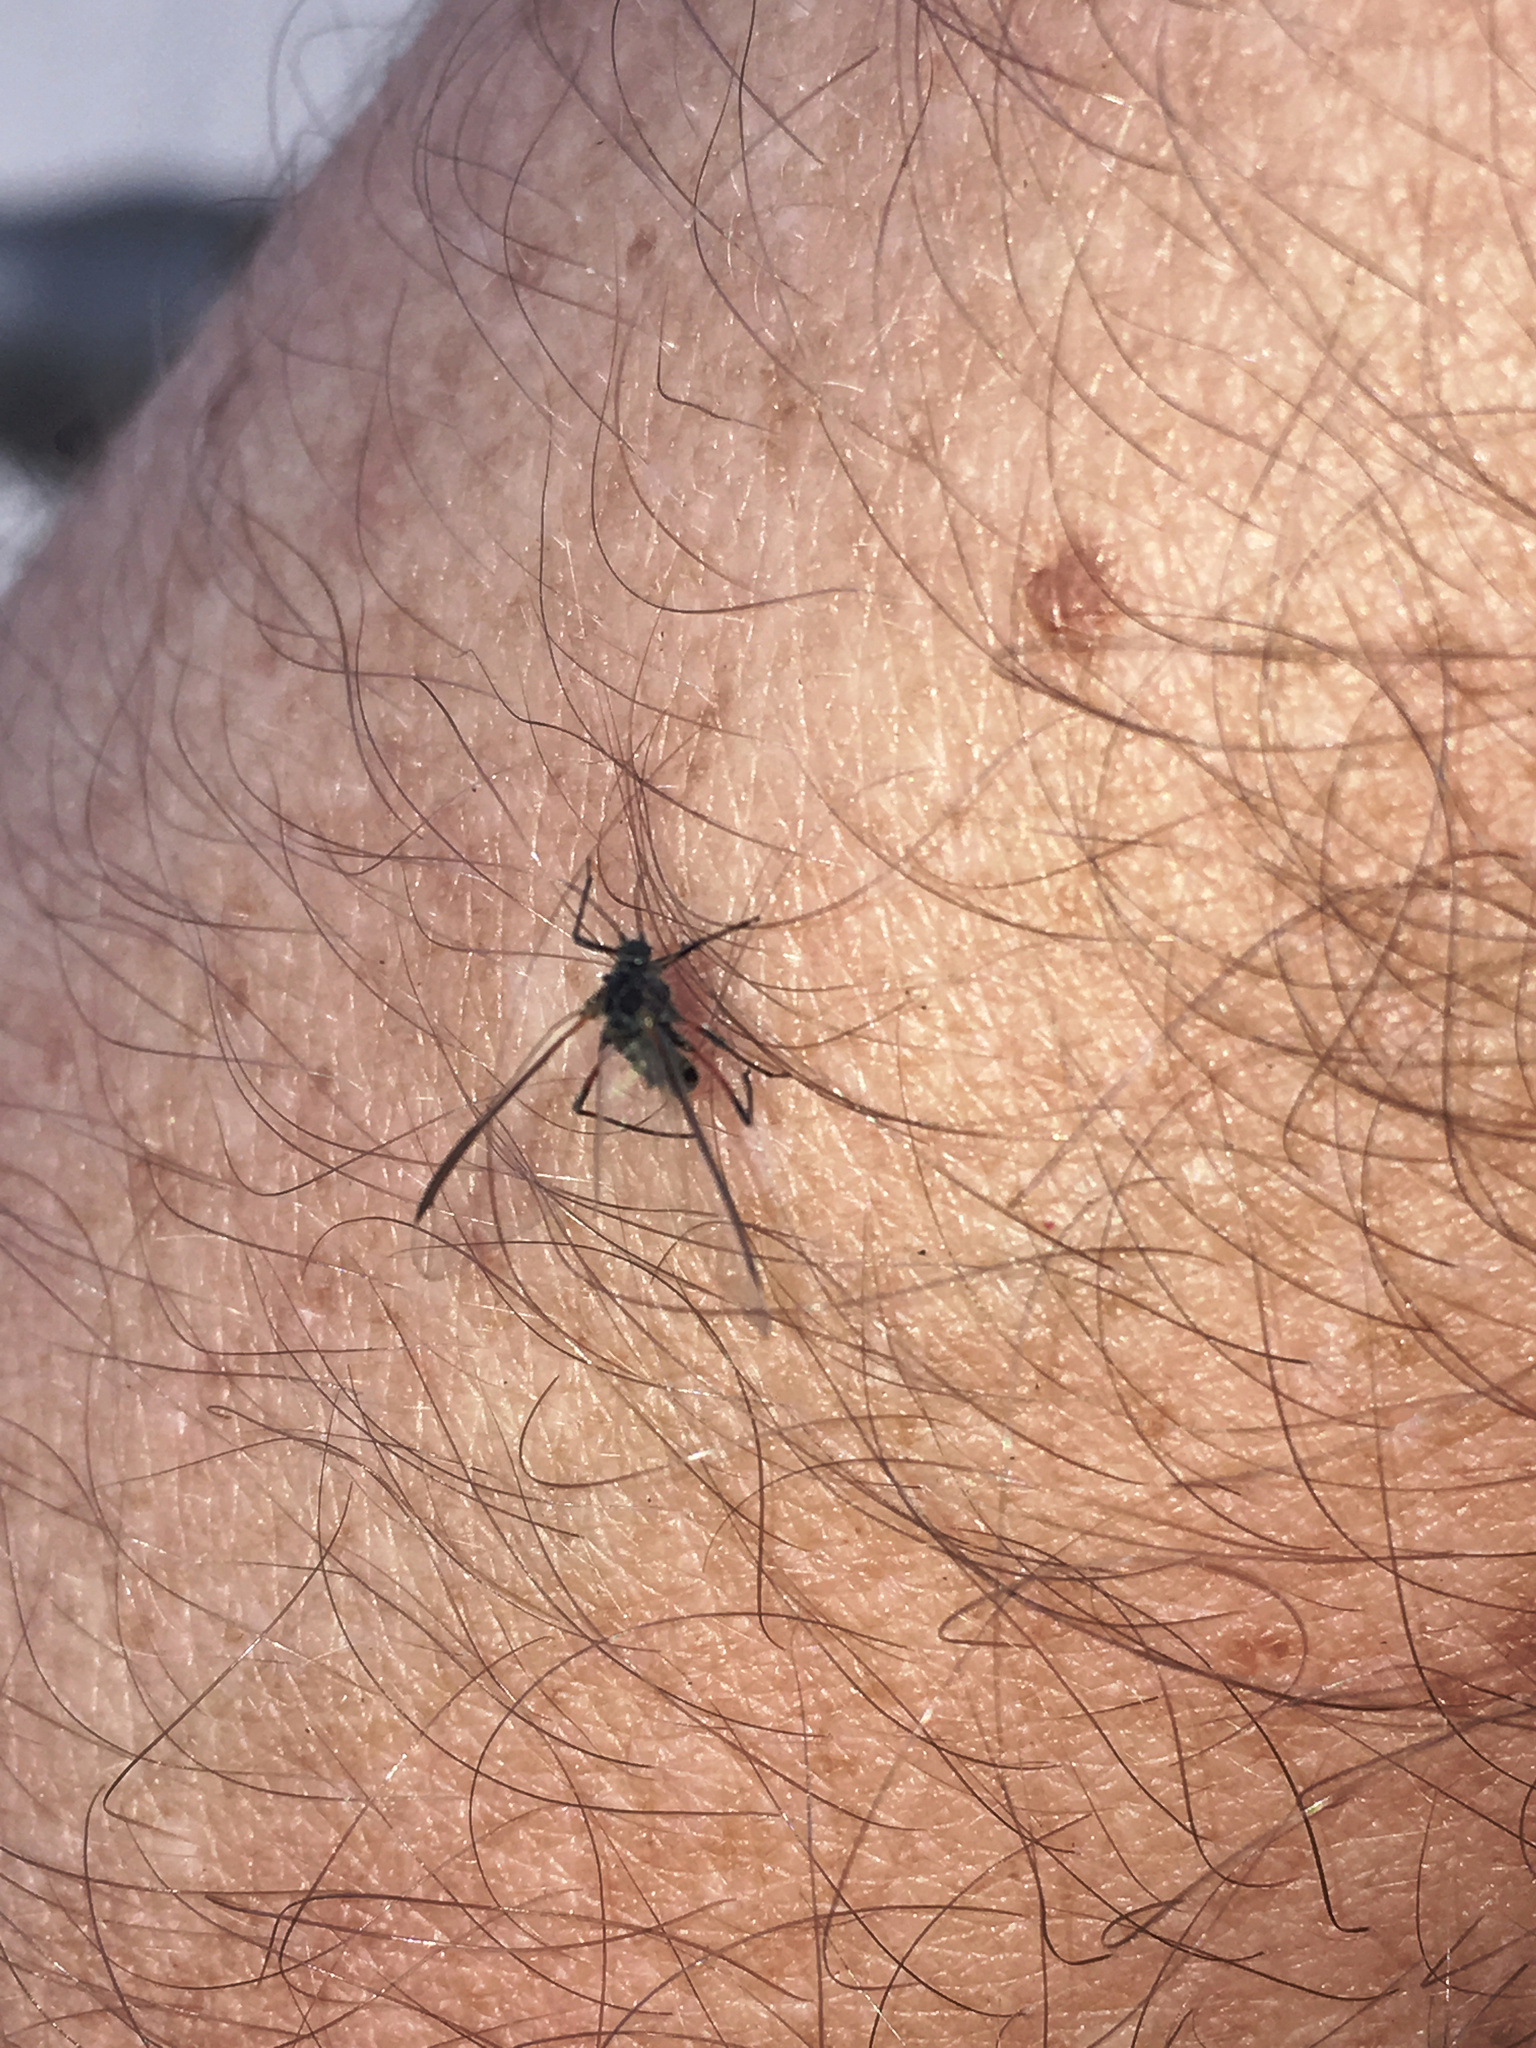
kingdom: Animalia
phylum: Arthropoda
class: Insecta
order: Hemiptera
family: Aphididae
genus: Tuberolachnus
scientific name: Tuberolachnus salignus
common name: Giant willow aphid
